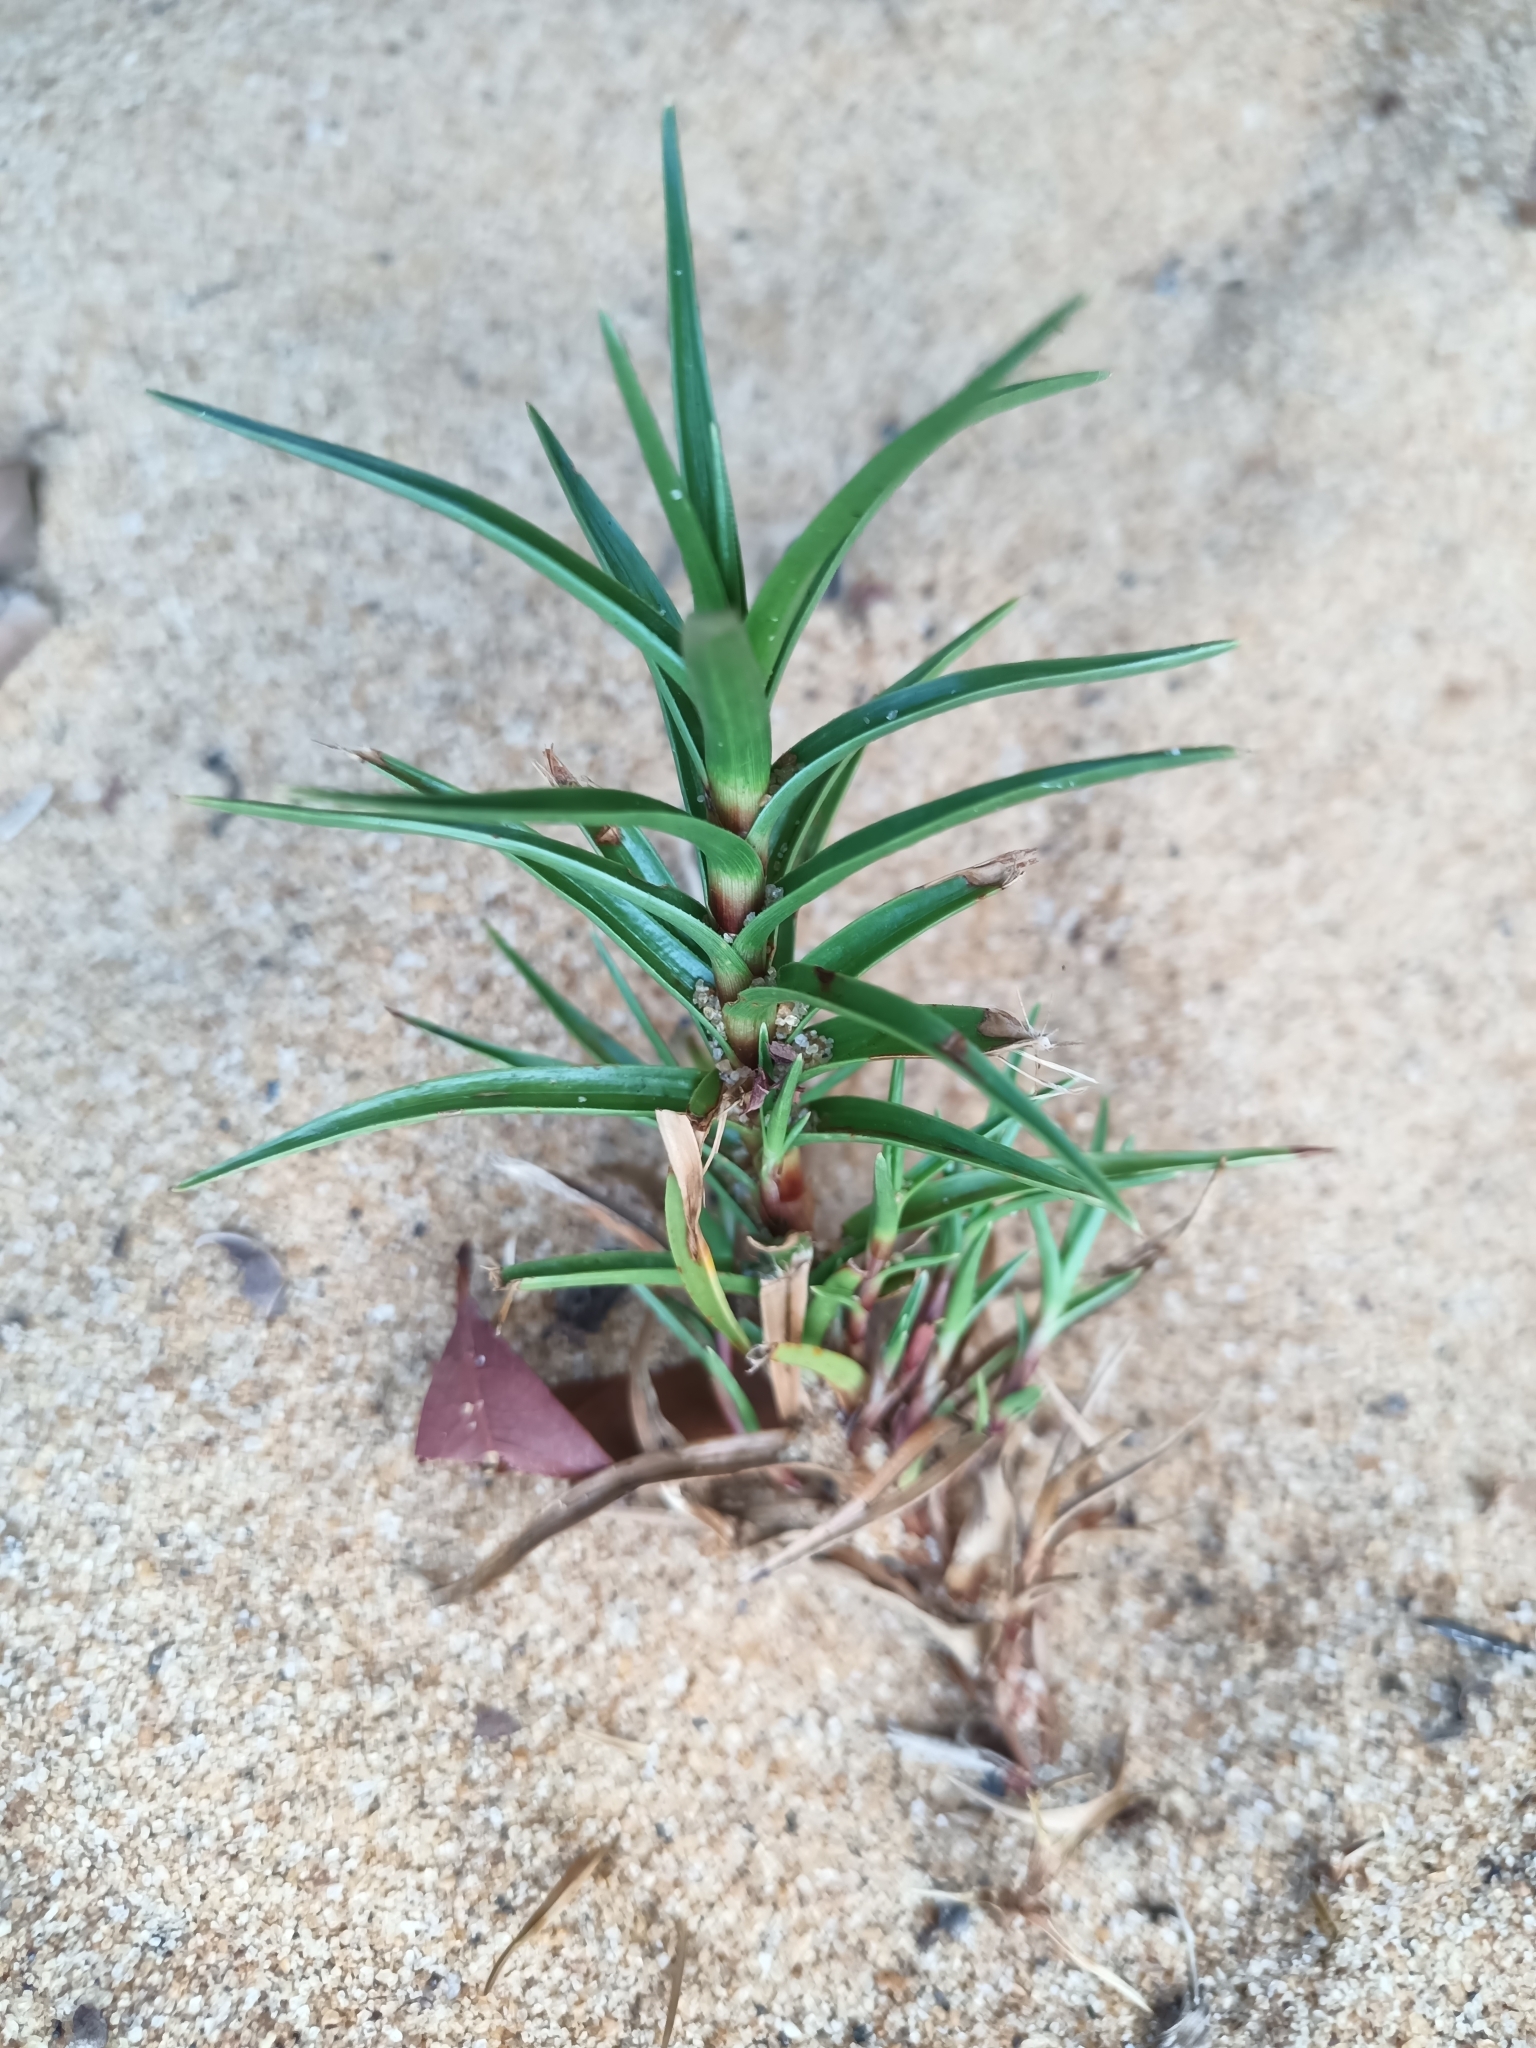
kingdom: Plantae
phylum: Tracheophyta
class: Liliopsida
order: Poales
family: Cyperaceae
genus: Cyperus
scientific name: Cyperus pedunculatus
